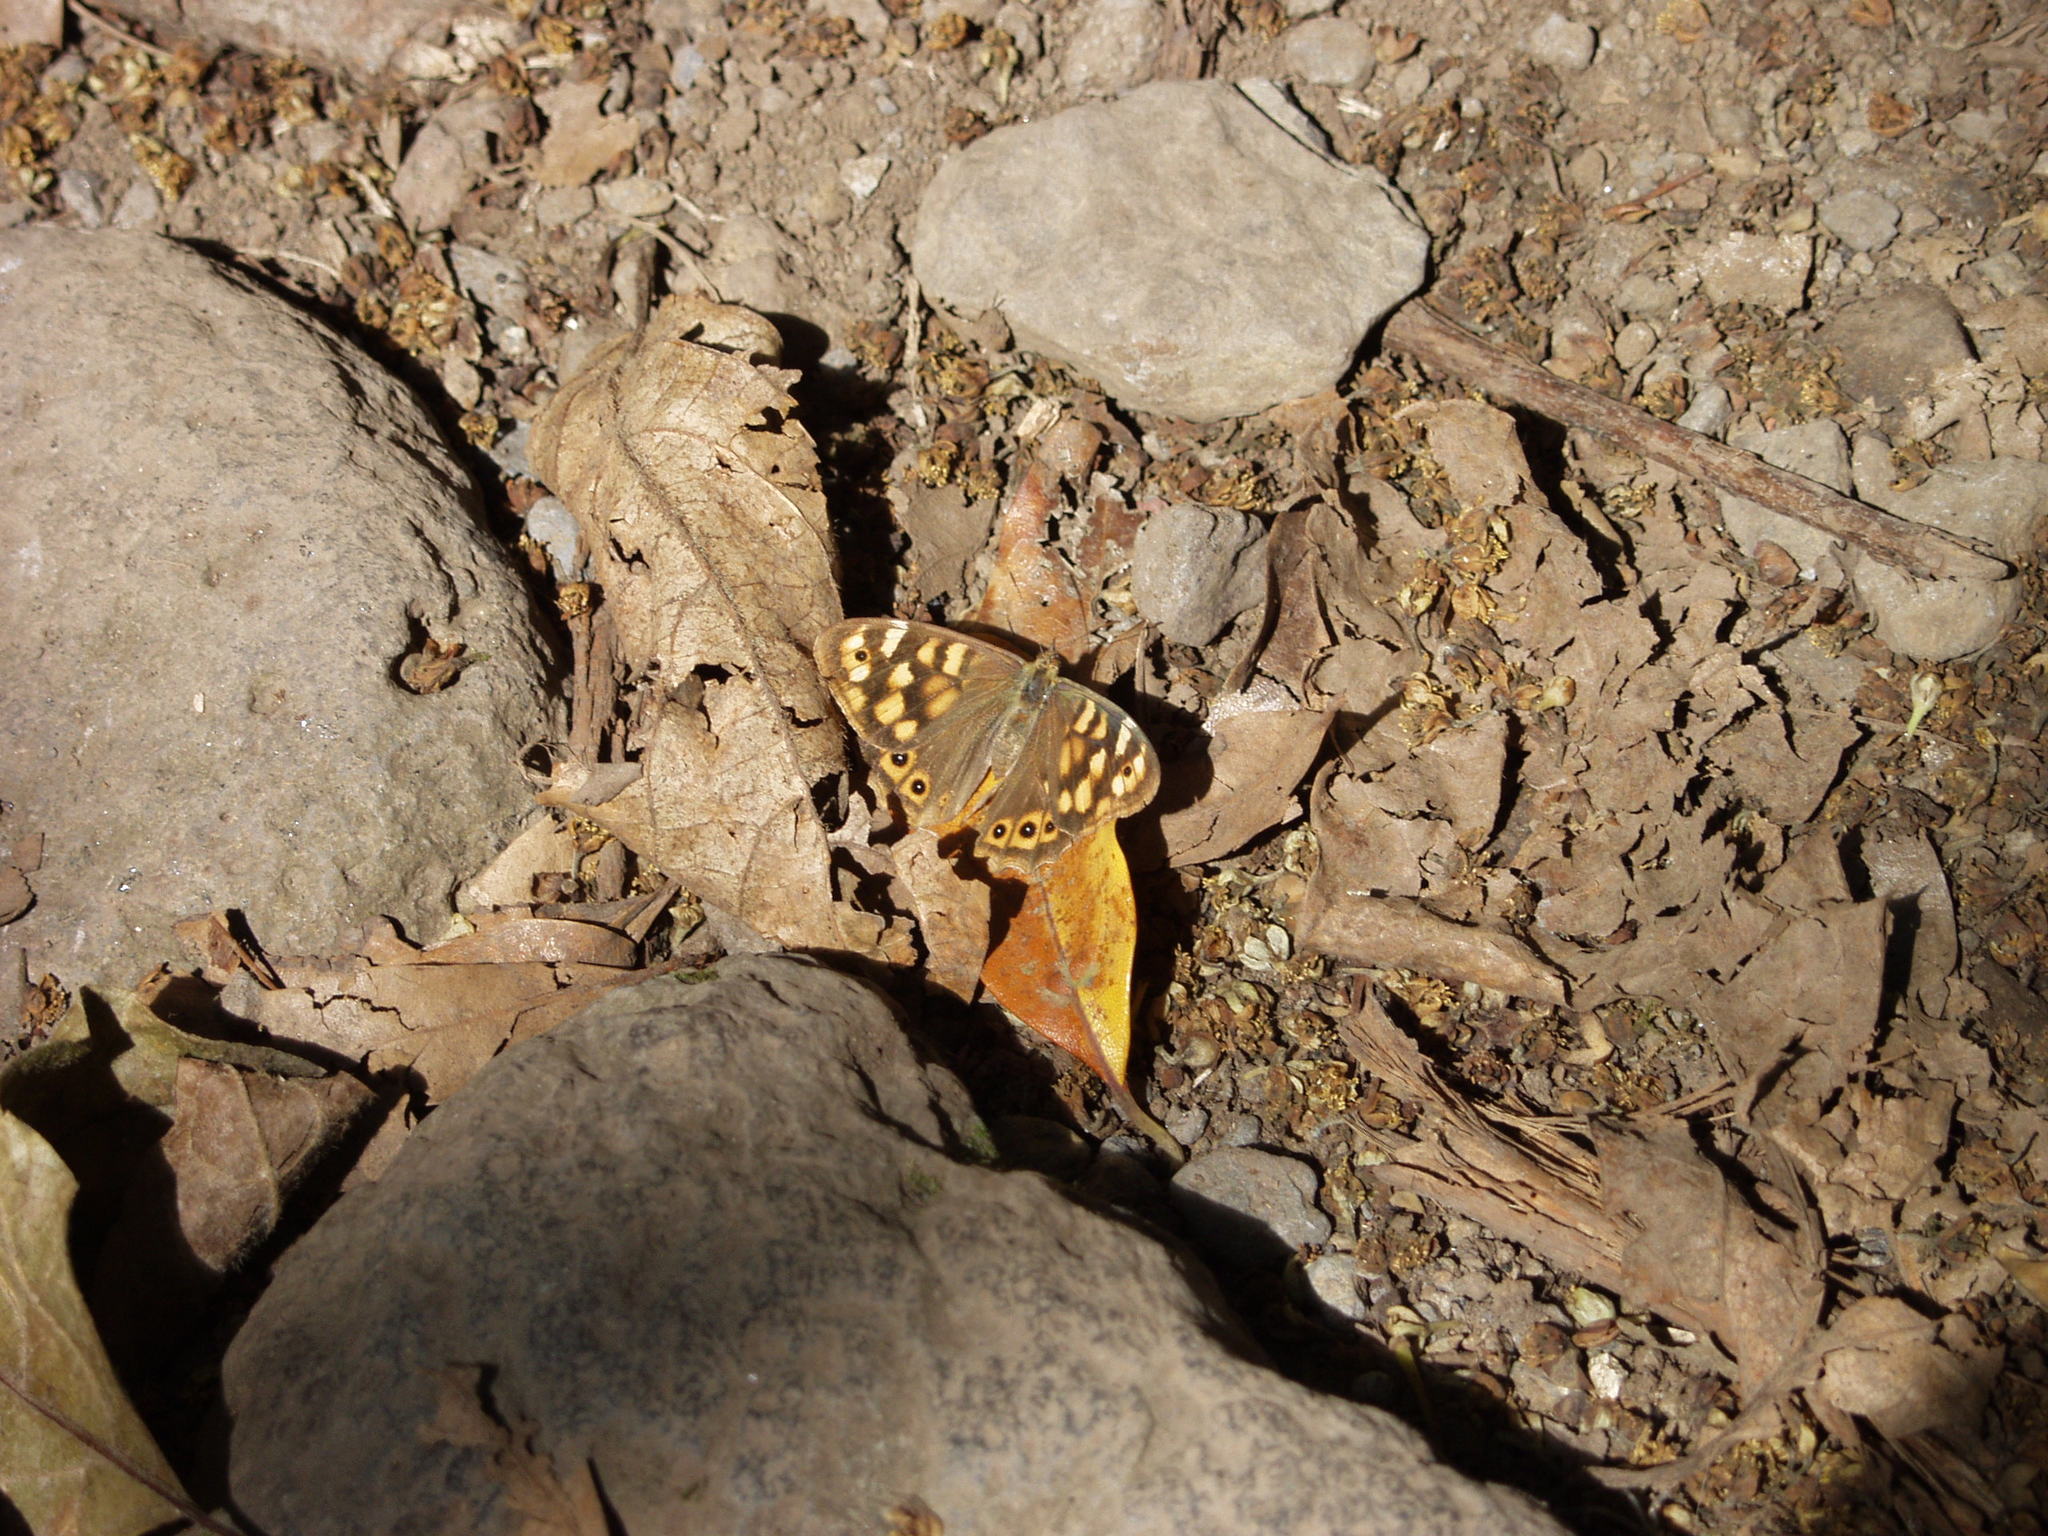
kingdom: Animalia
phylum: Arthropoda
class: Insecta
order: Lepidoptera
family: Nymphalidae
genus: Pararge
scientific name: Pararge aegeria
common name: Speckled wood
